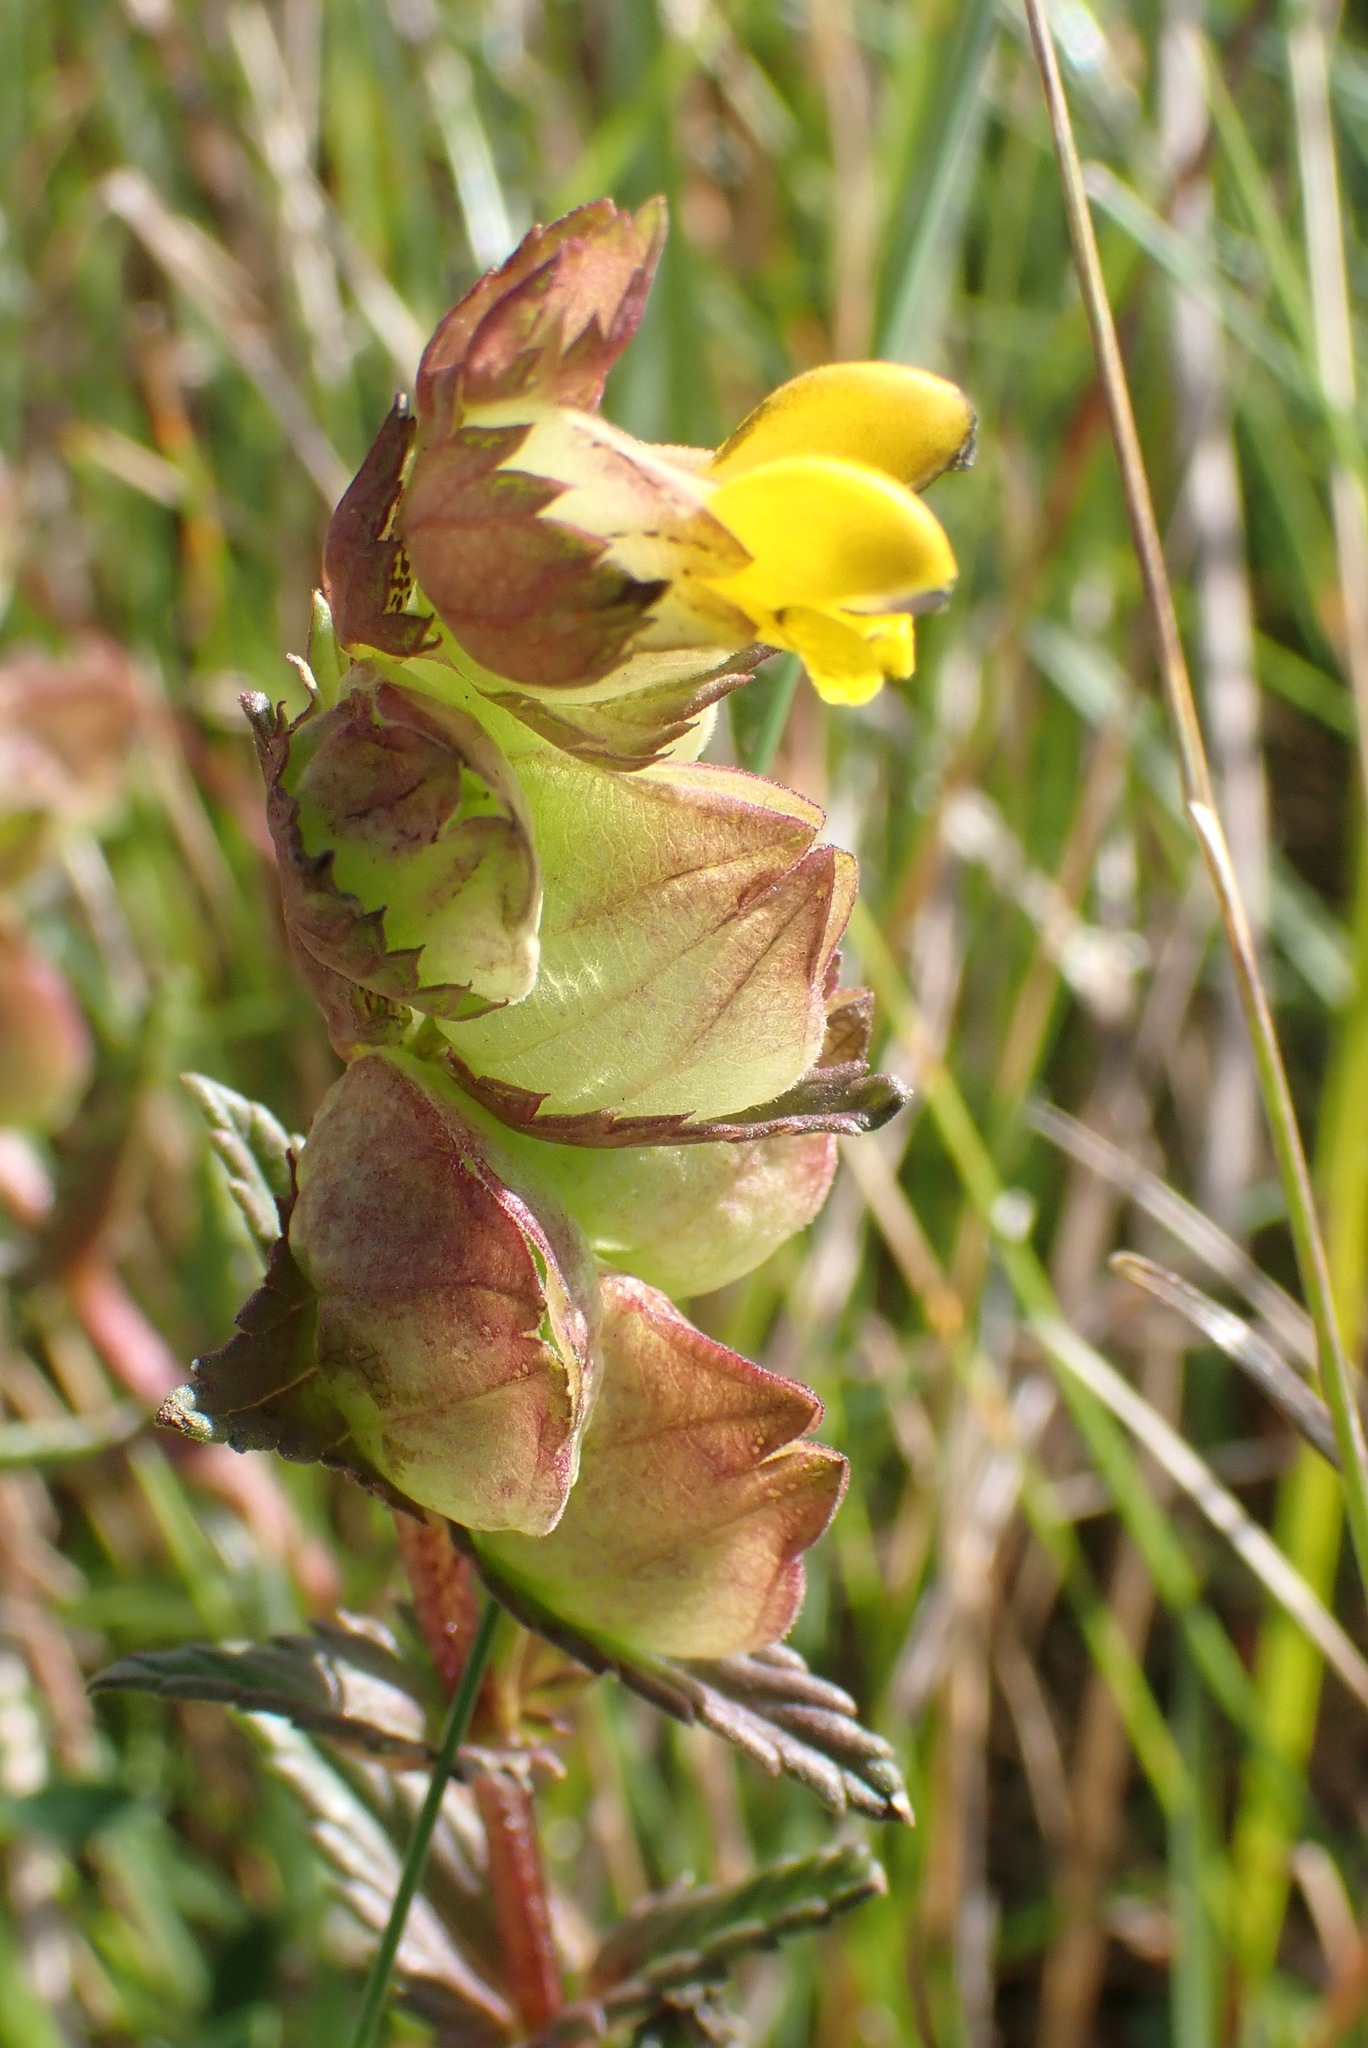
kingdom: Plantae
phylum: Tracheophyta
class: Magnoliopsida
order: Lamiales
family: Orobanchaceae
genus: Rhinanthus
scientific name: Rhinanthus minor
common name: Yellow-rattle
